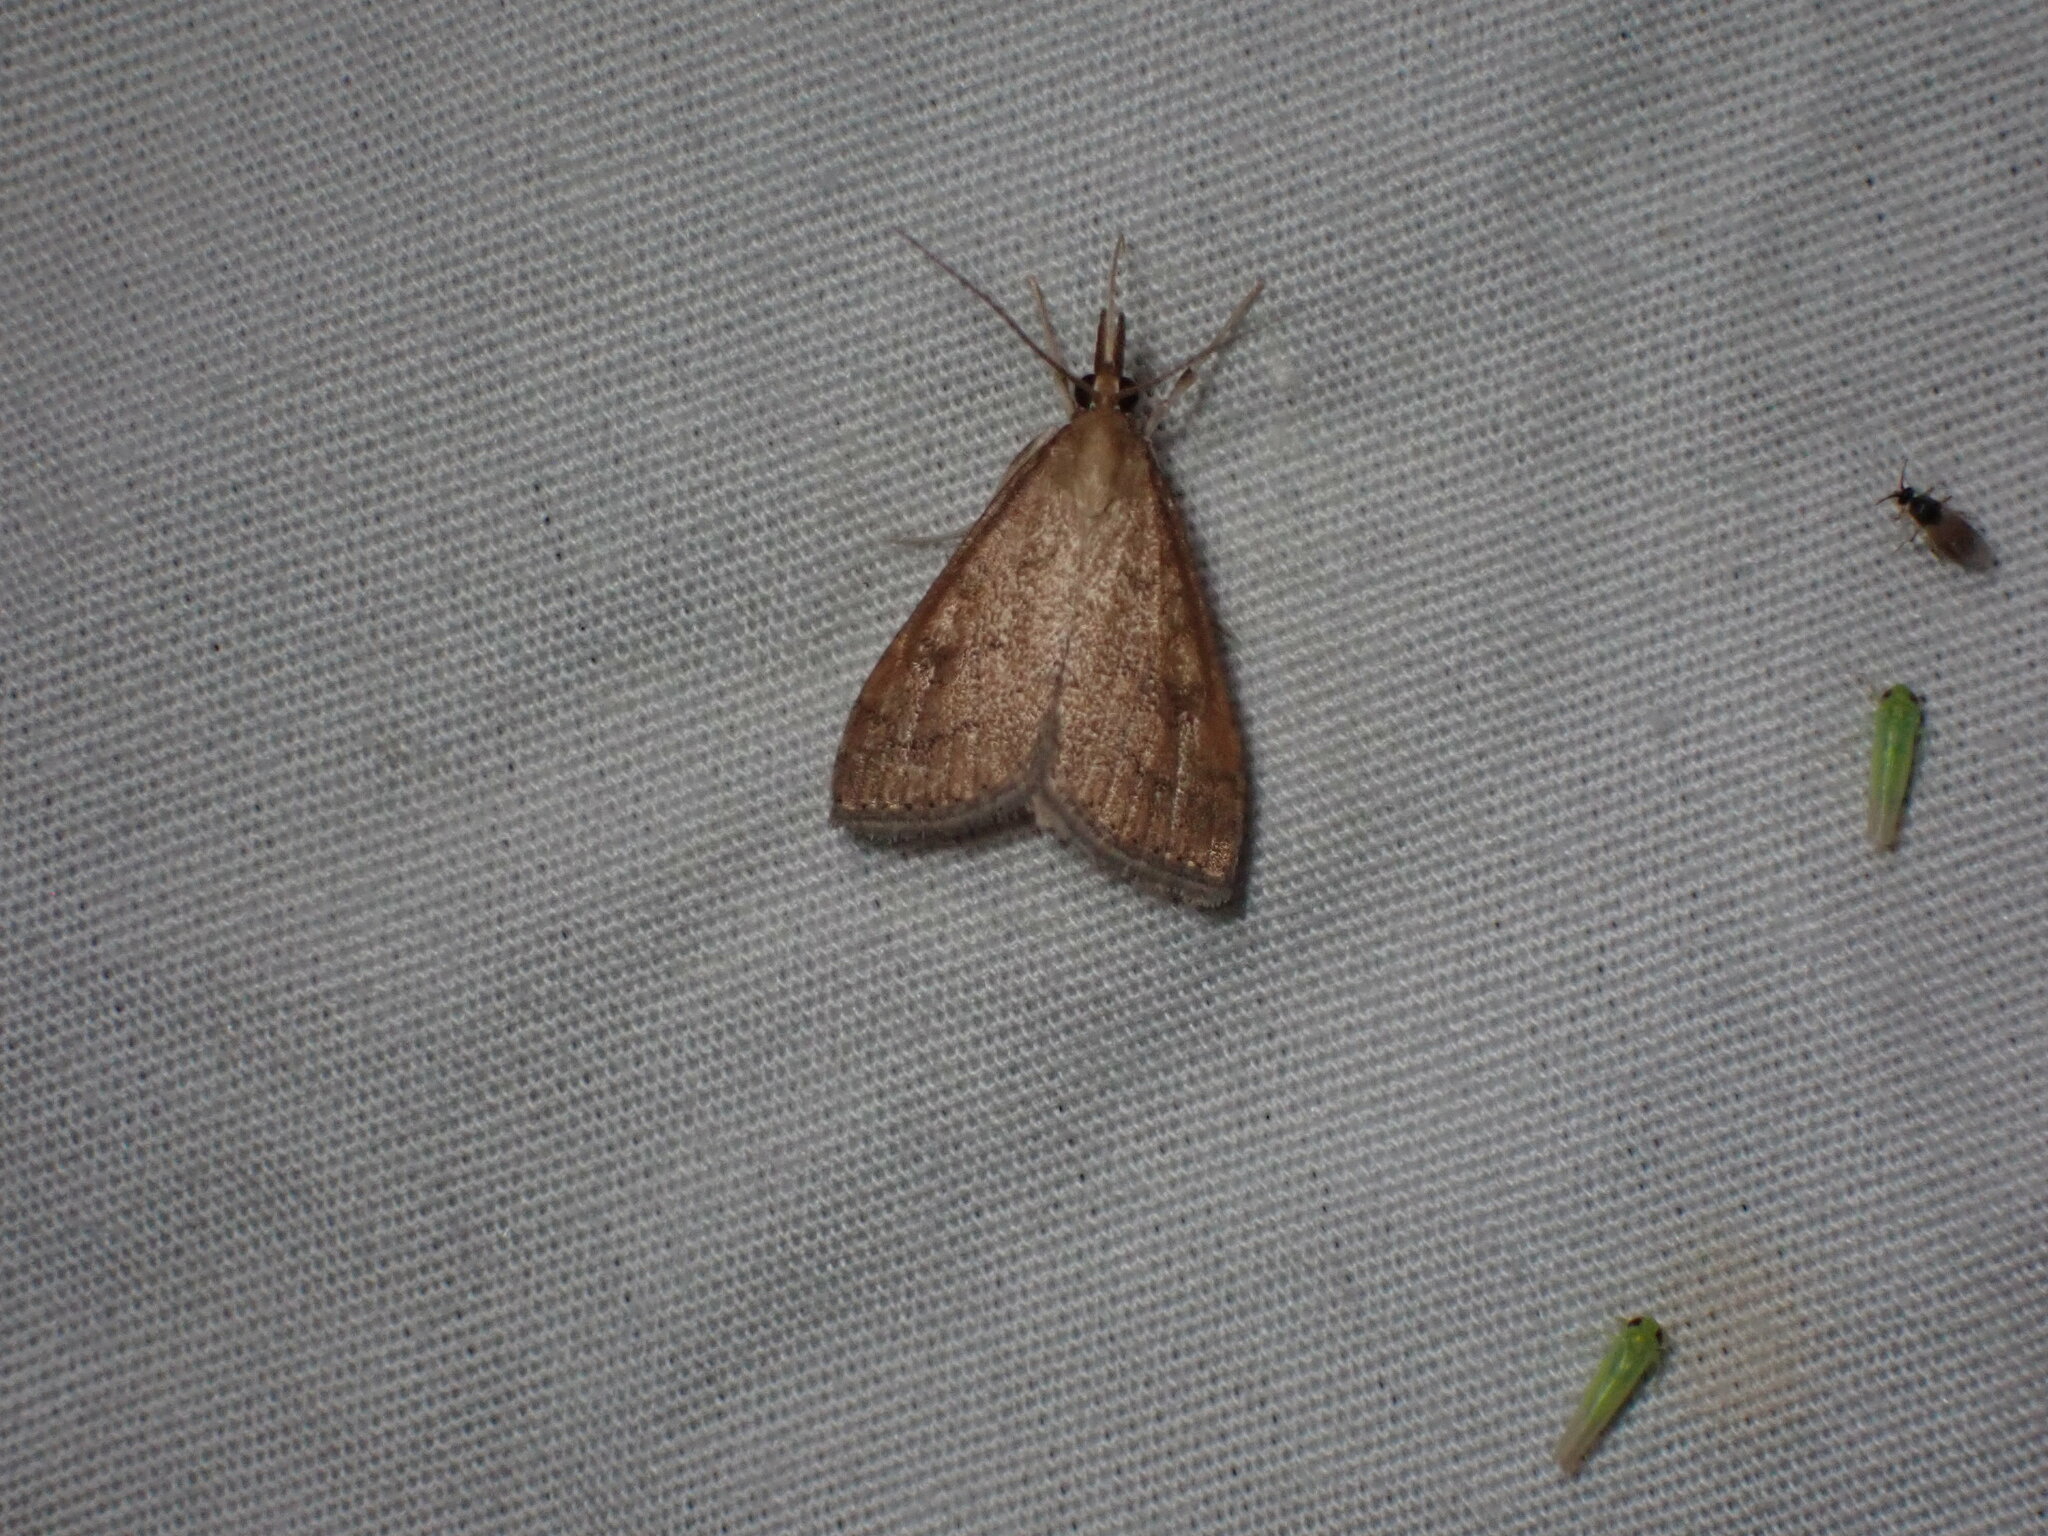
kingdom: Animalia
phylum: Arthropoda
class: Insecta
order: Lepidoptera
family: Crambidae
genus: Udea
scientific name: Udea rubigalis
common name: Celery leaftier moth
